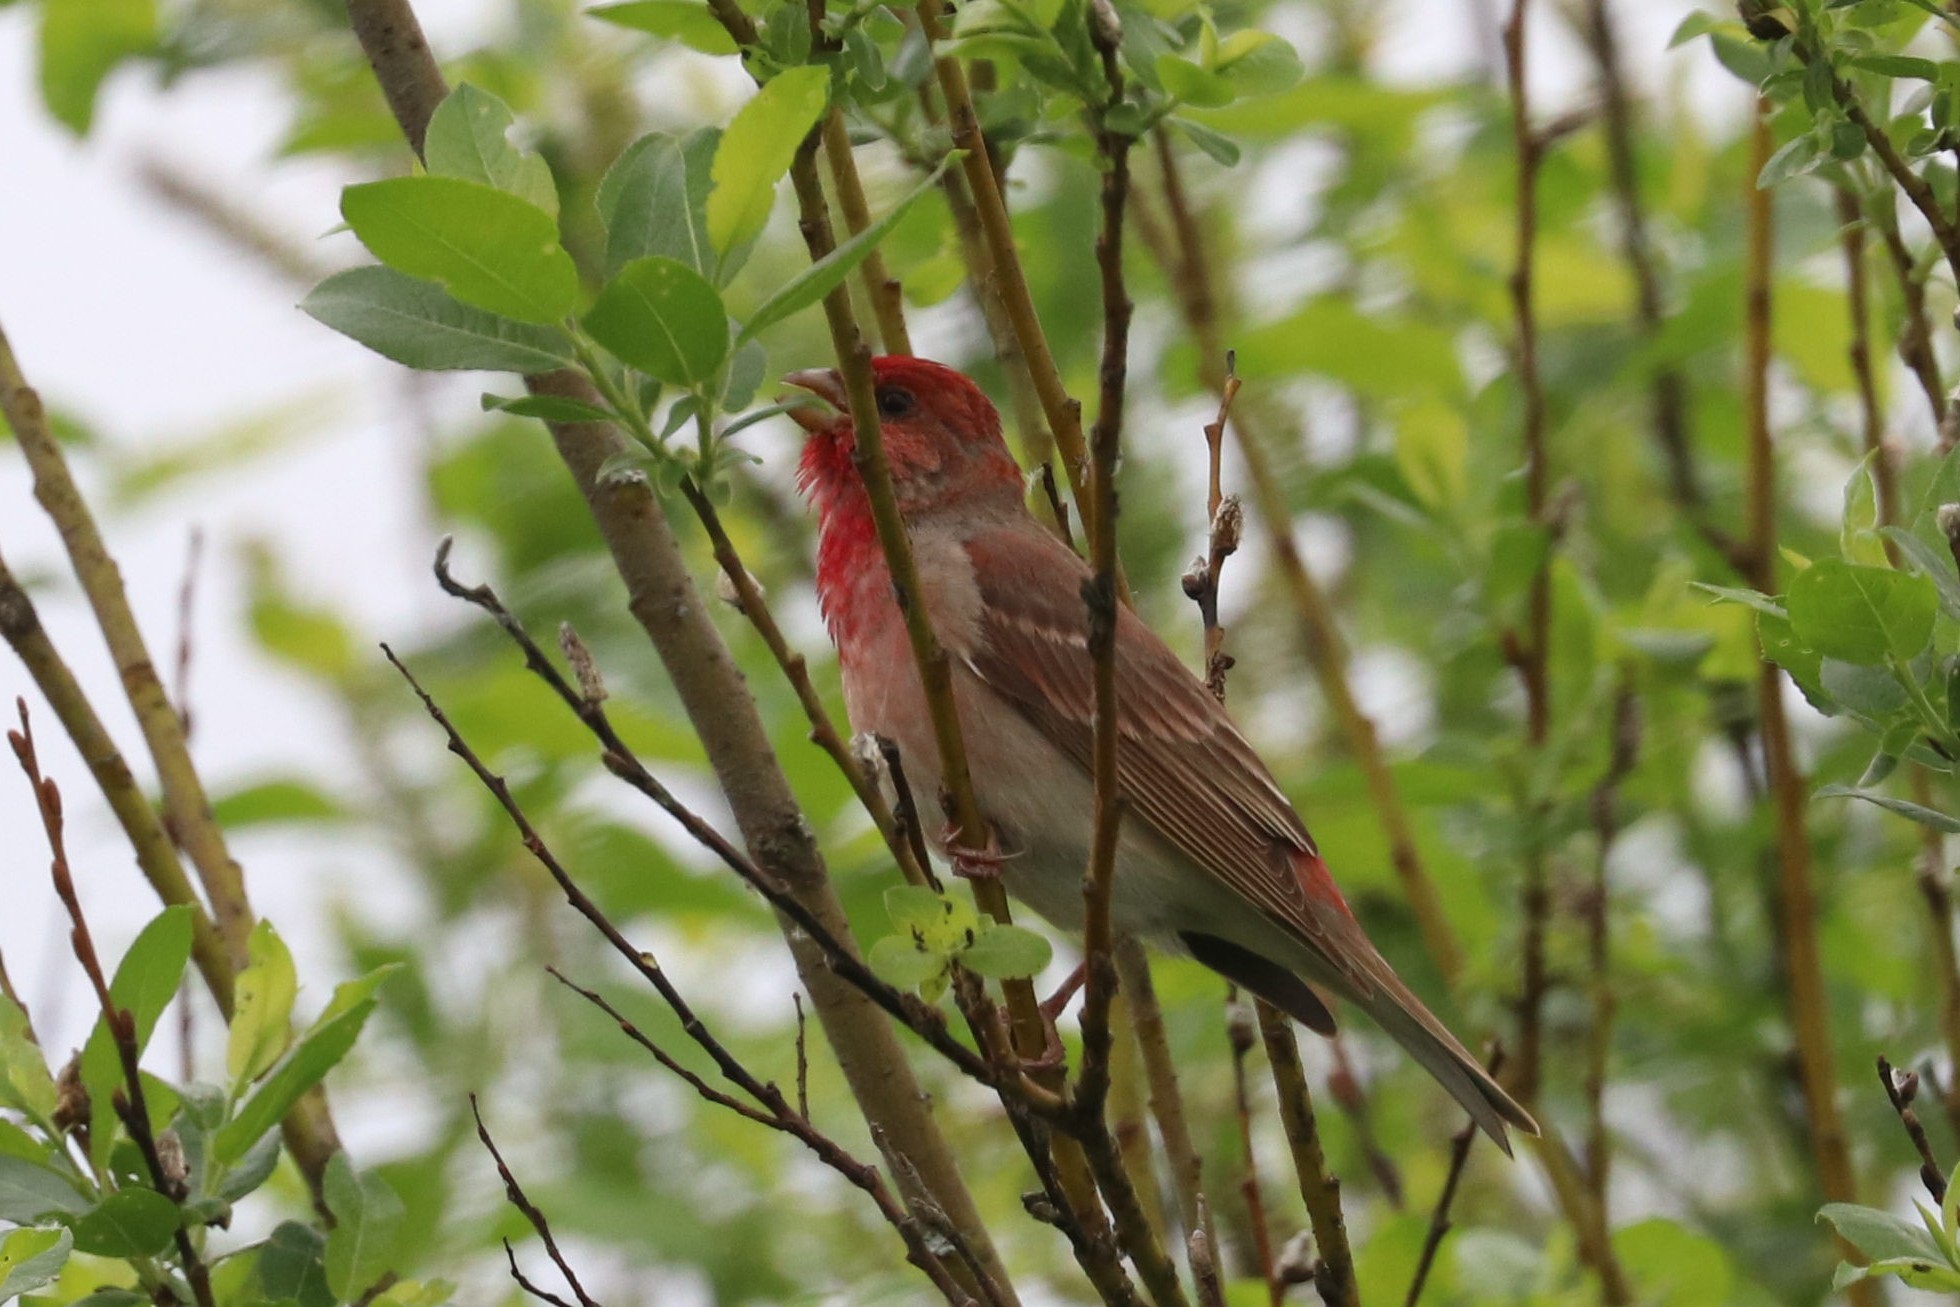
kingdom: Animalia
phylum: Chordata
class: Aves
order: Passeriformes
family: Fringillidae
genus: Carpodacus
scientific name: Carpodacus erythrinus
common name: Common rosefinch
